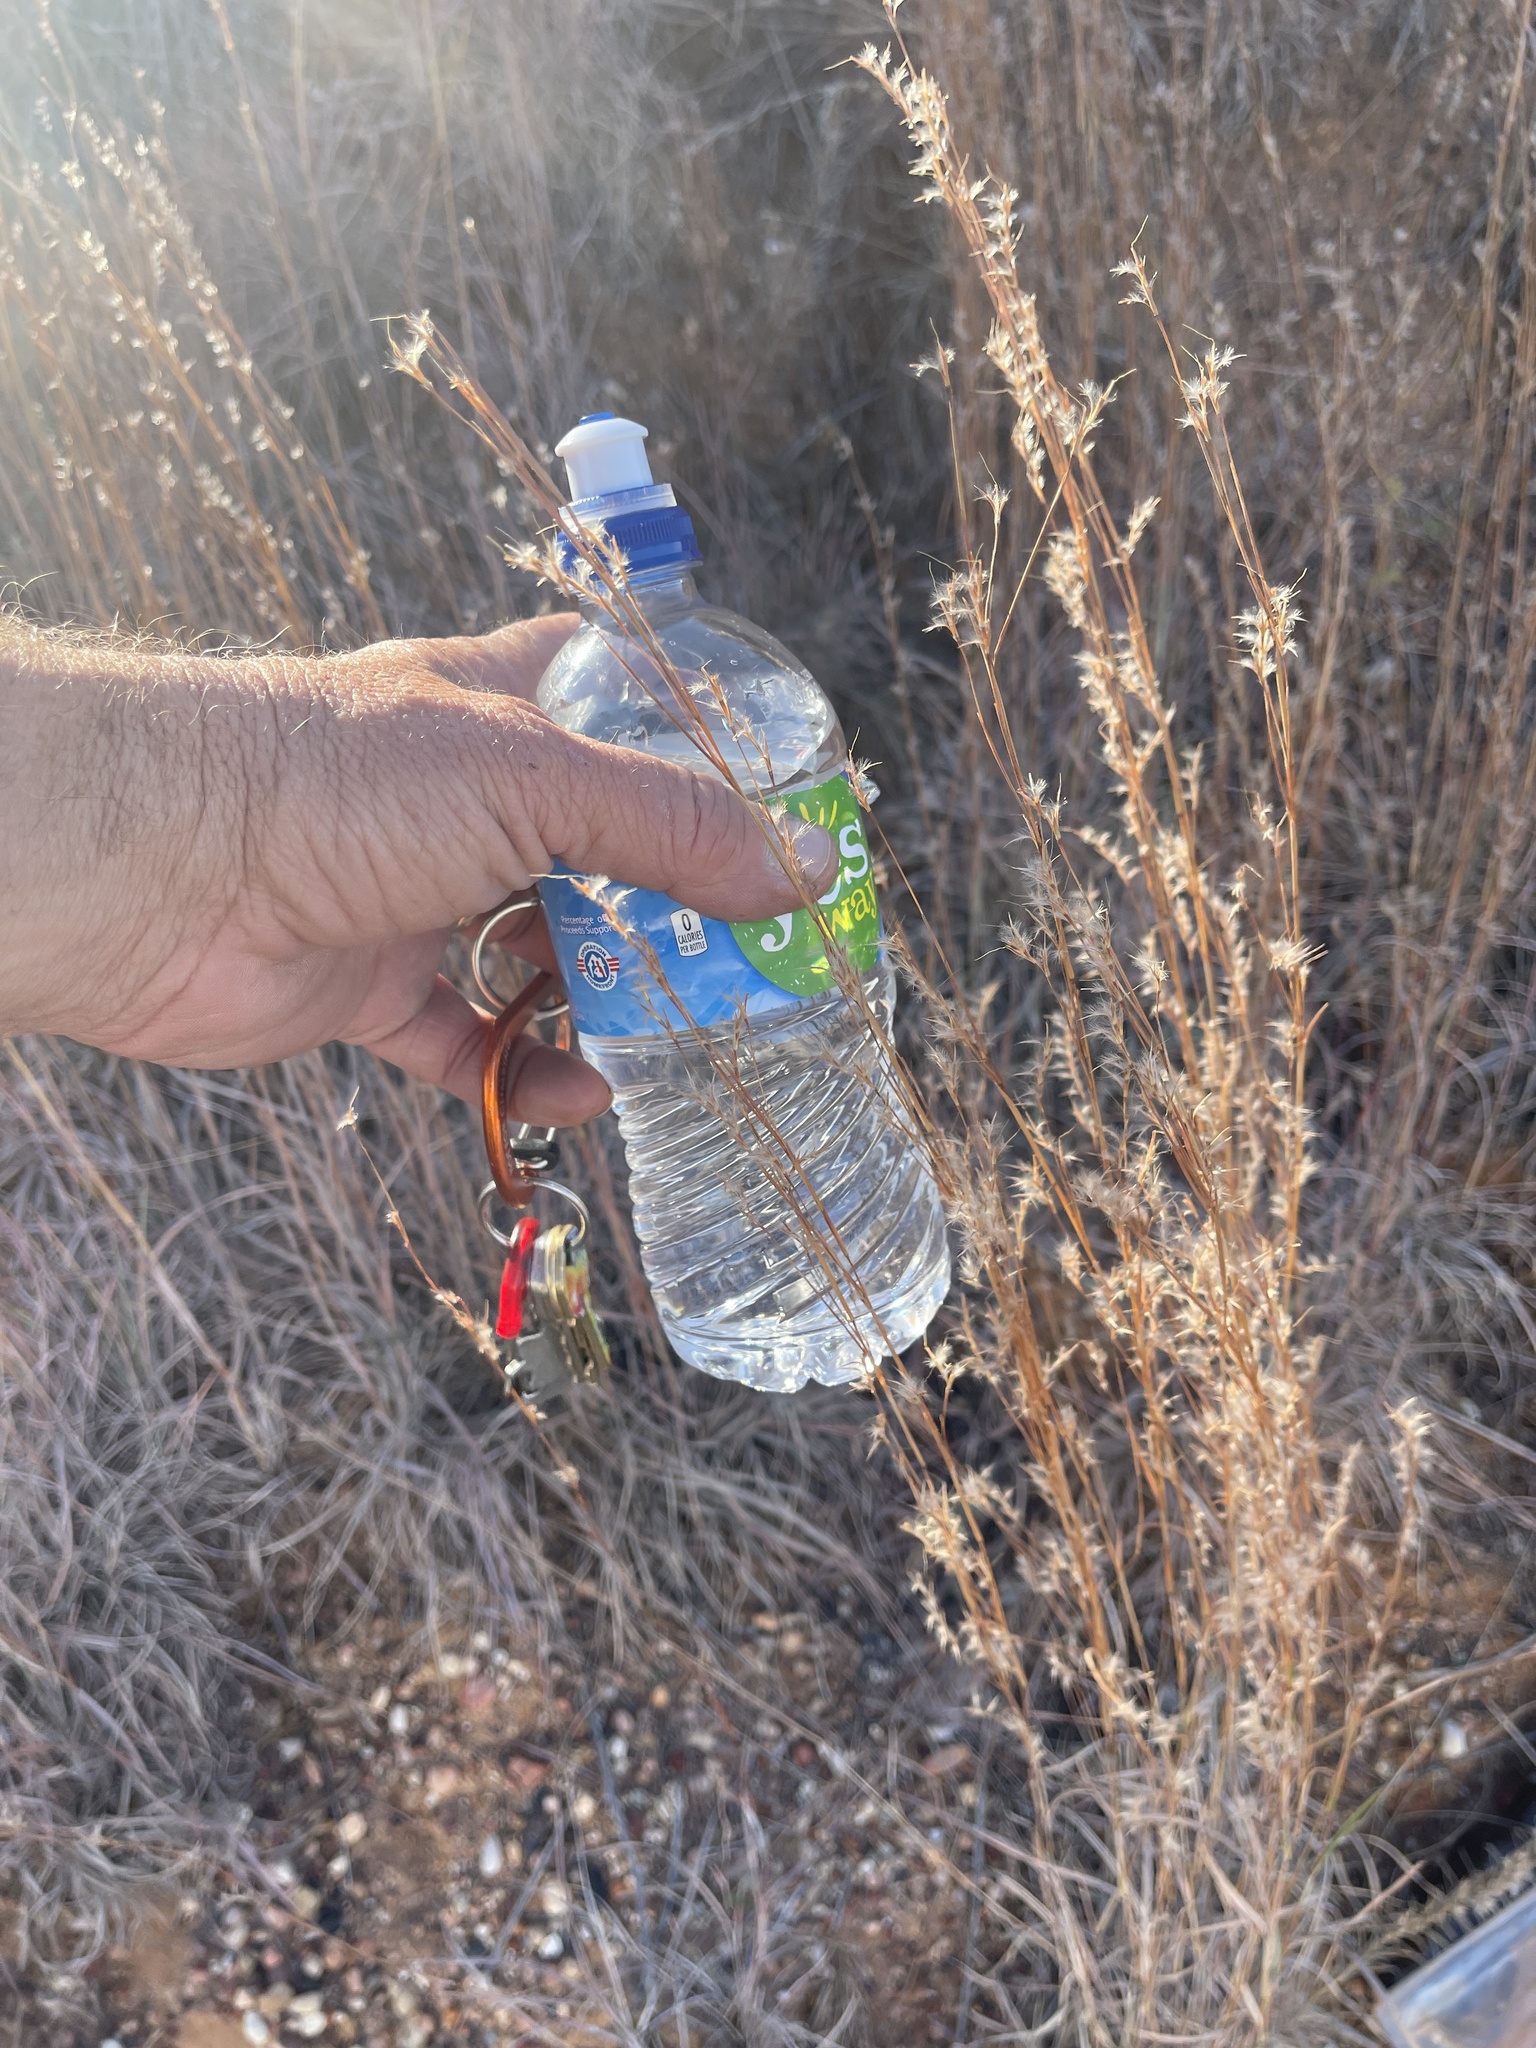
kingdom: Plantae
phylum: Tracheophyta
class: Liliopsida
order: Poales
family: Poaceae
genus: Schizachyrium
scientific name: Schizachyrium scoparium
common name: Little bluestem
